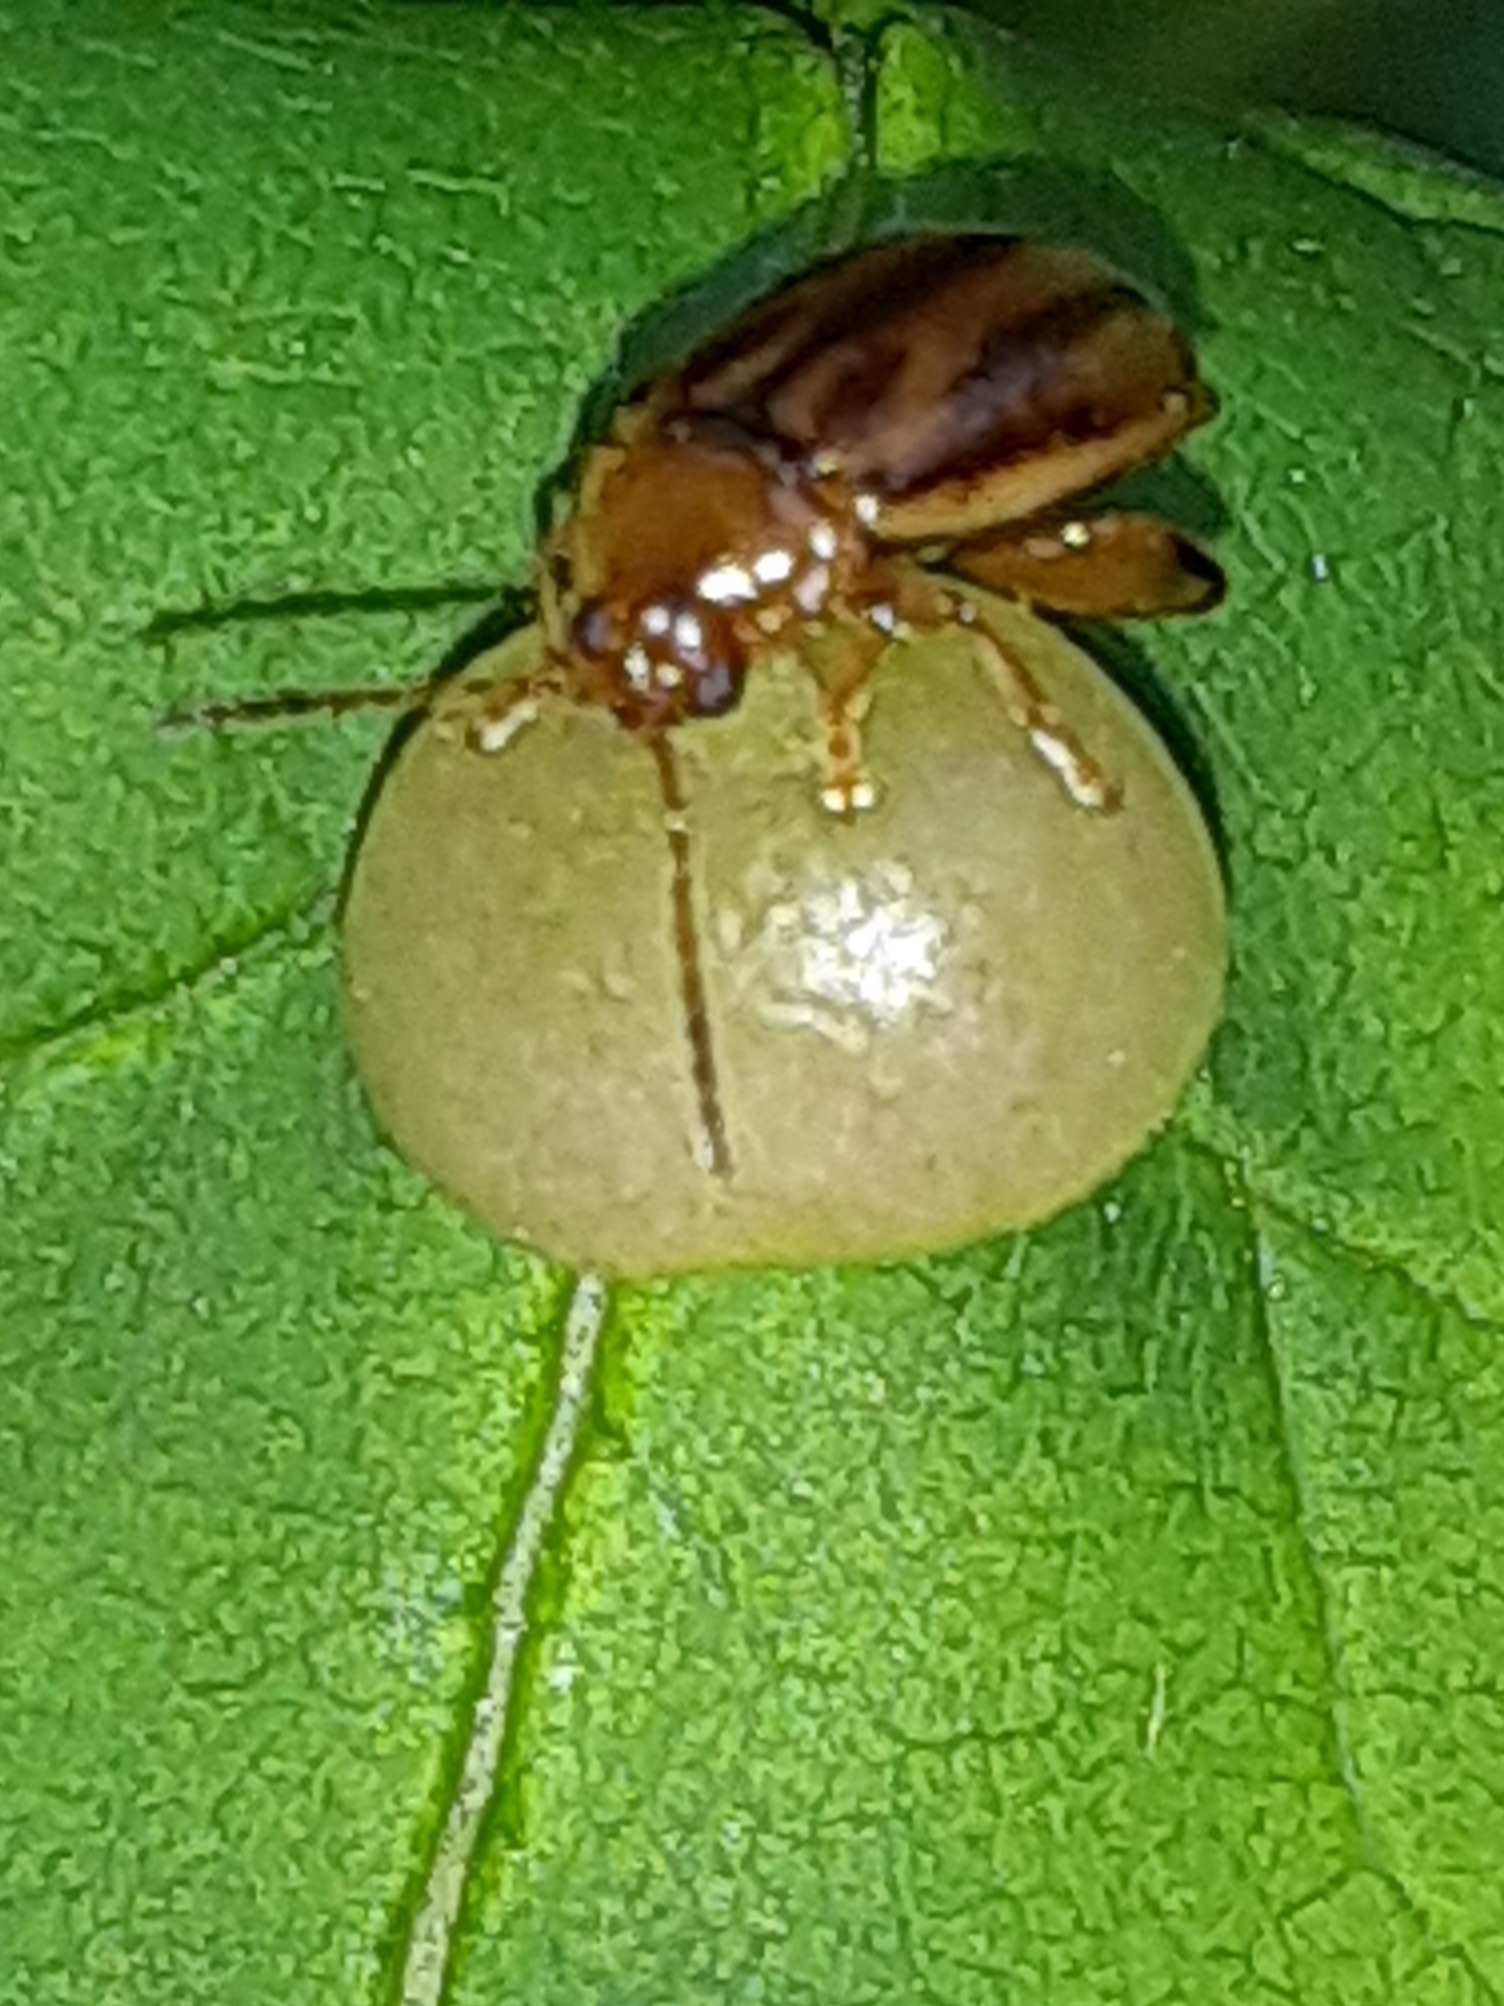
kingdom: Animalia
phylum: Arthropoda
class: Insecta
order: Coleoptera
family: Chrysomelidae
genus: Capraita
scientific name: Capraita subvittata
